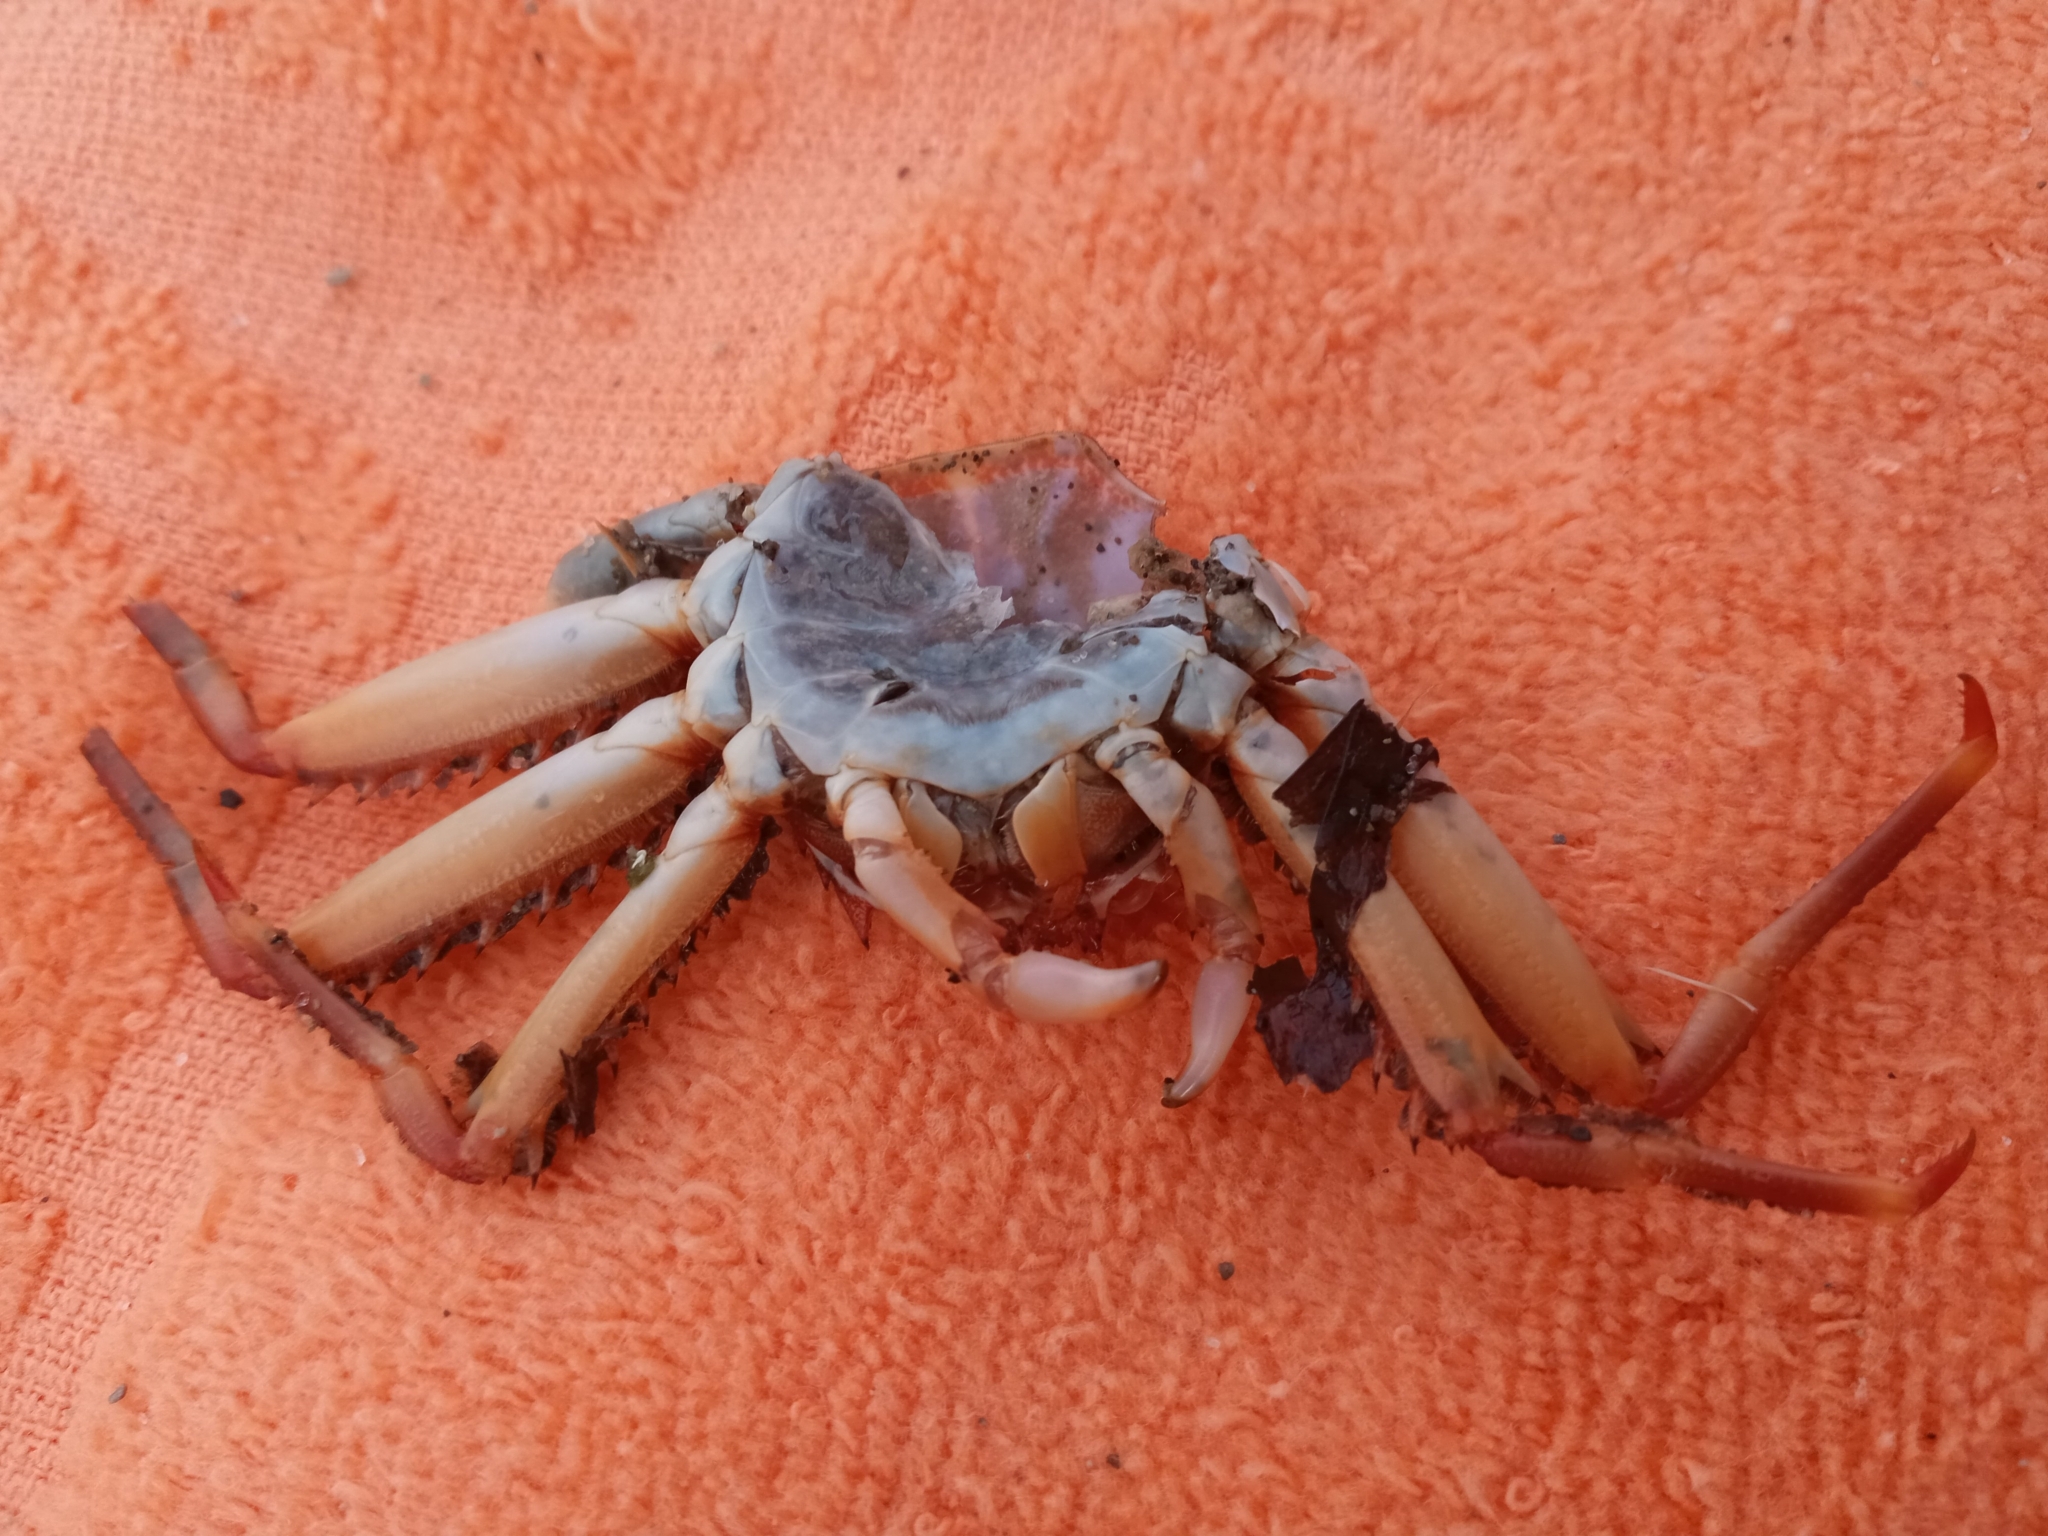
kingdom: Animalia
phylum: Arthropoda
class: Malacostraca
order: Decapoda
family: Percnidae
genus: Percnon
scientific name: Percnon gibbesi
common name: Nimble spray crab
